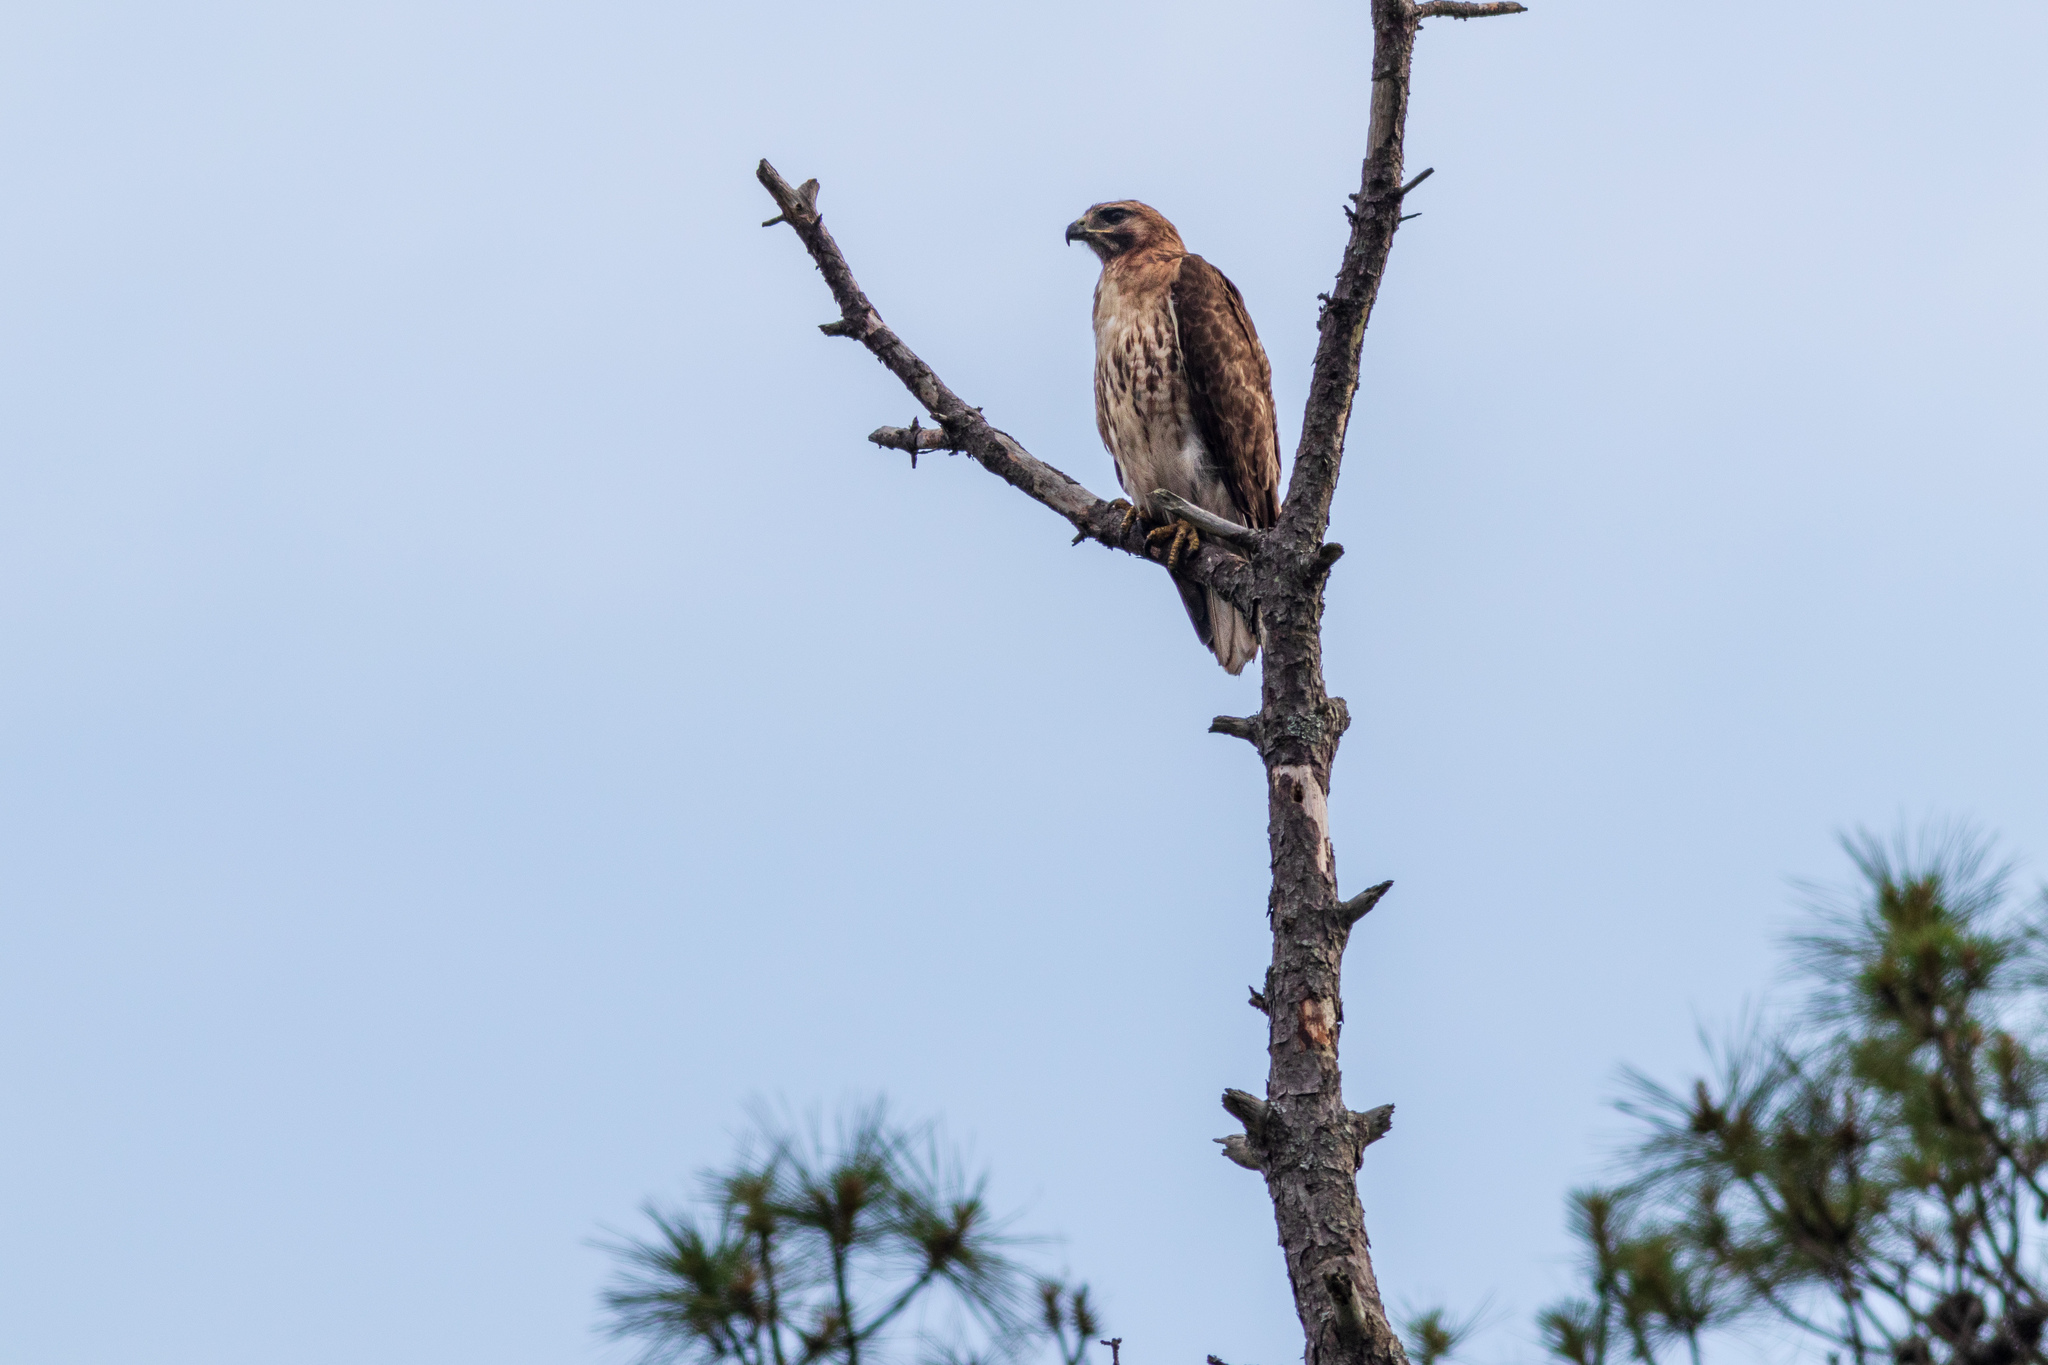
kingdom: Animalia
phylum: Chordata
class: Aves
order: Accipitriformes
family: Accipitridae
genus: Buteo
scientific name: Buteo jamaicensis
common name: Red-tailed hawk
